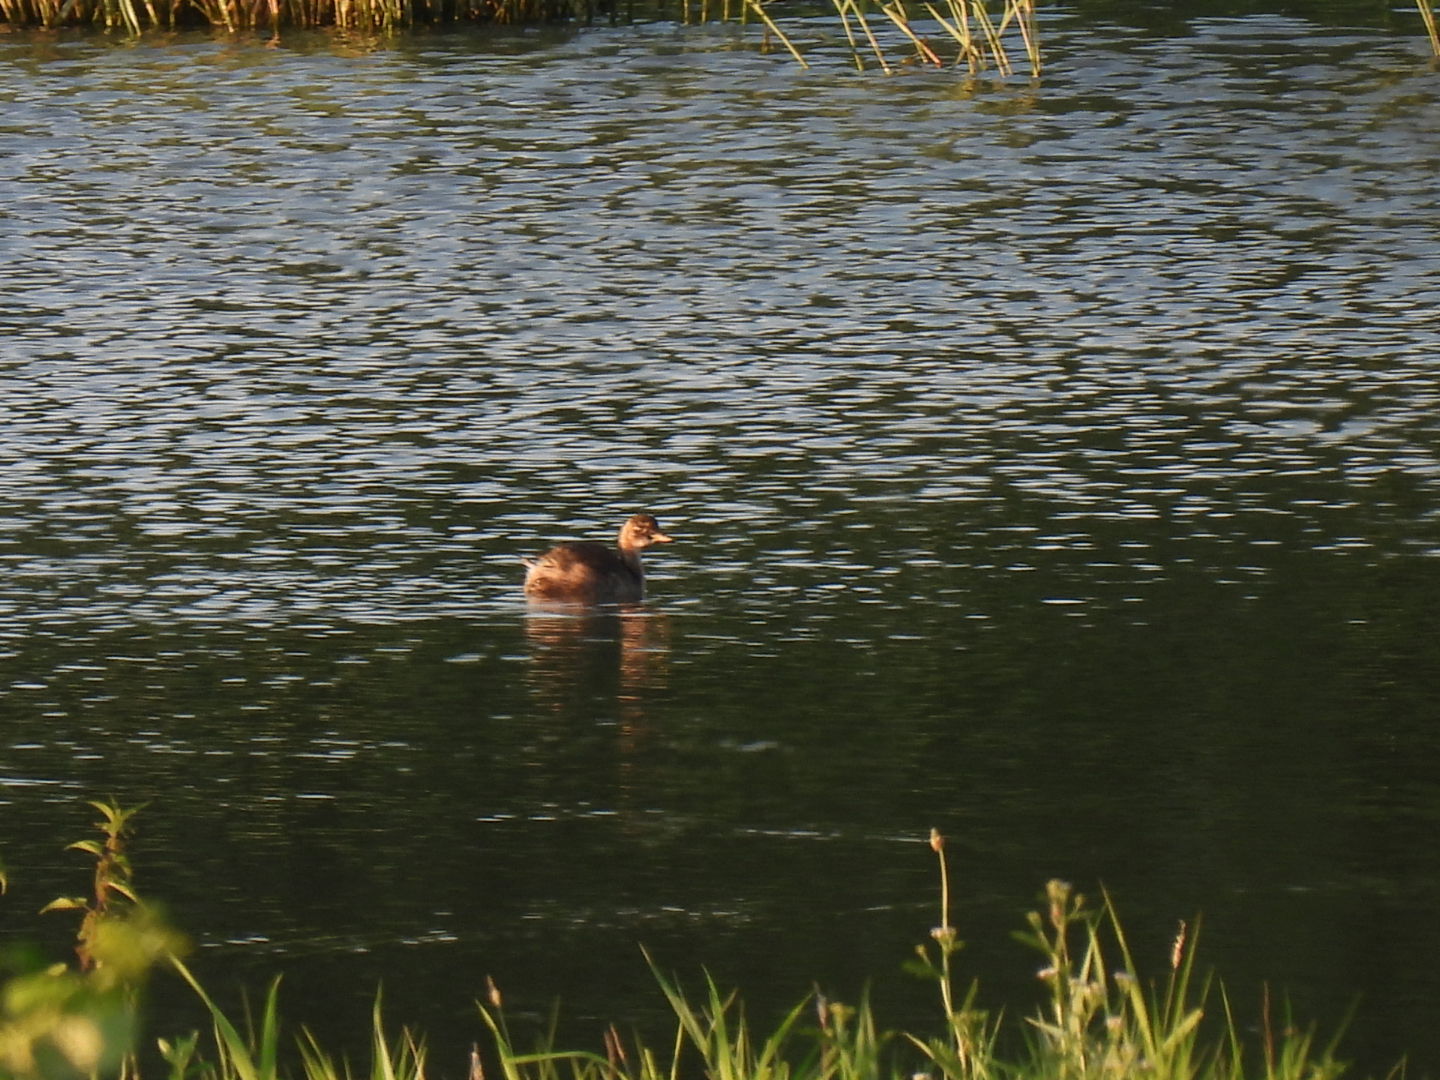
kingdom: Animalia
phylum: Chordata
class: Aves
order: Podicipediformes
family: Podicipedidae
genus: Tachybaptus
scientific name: Tachybaptus ruficollis
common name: Little grebe
